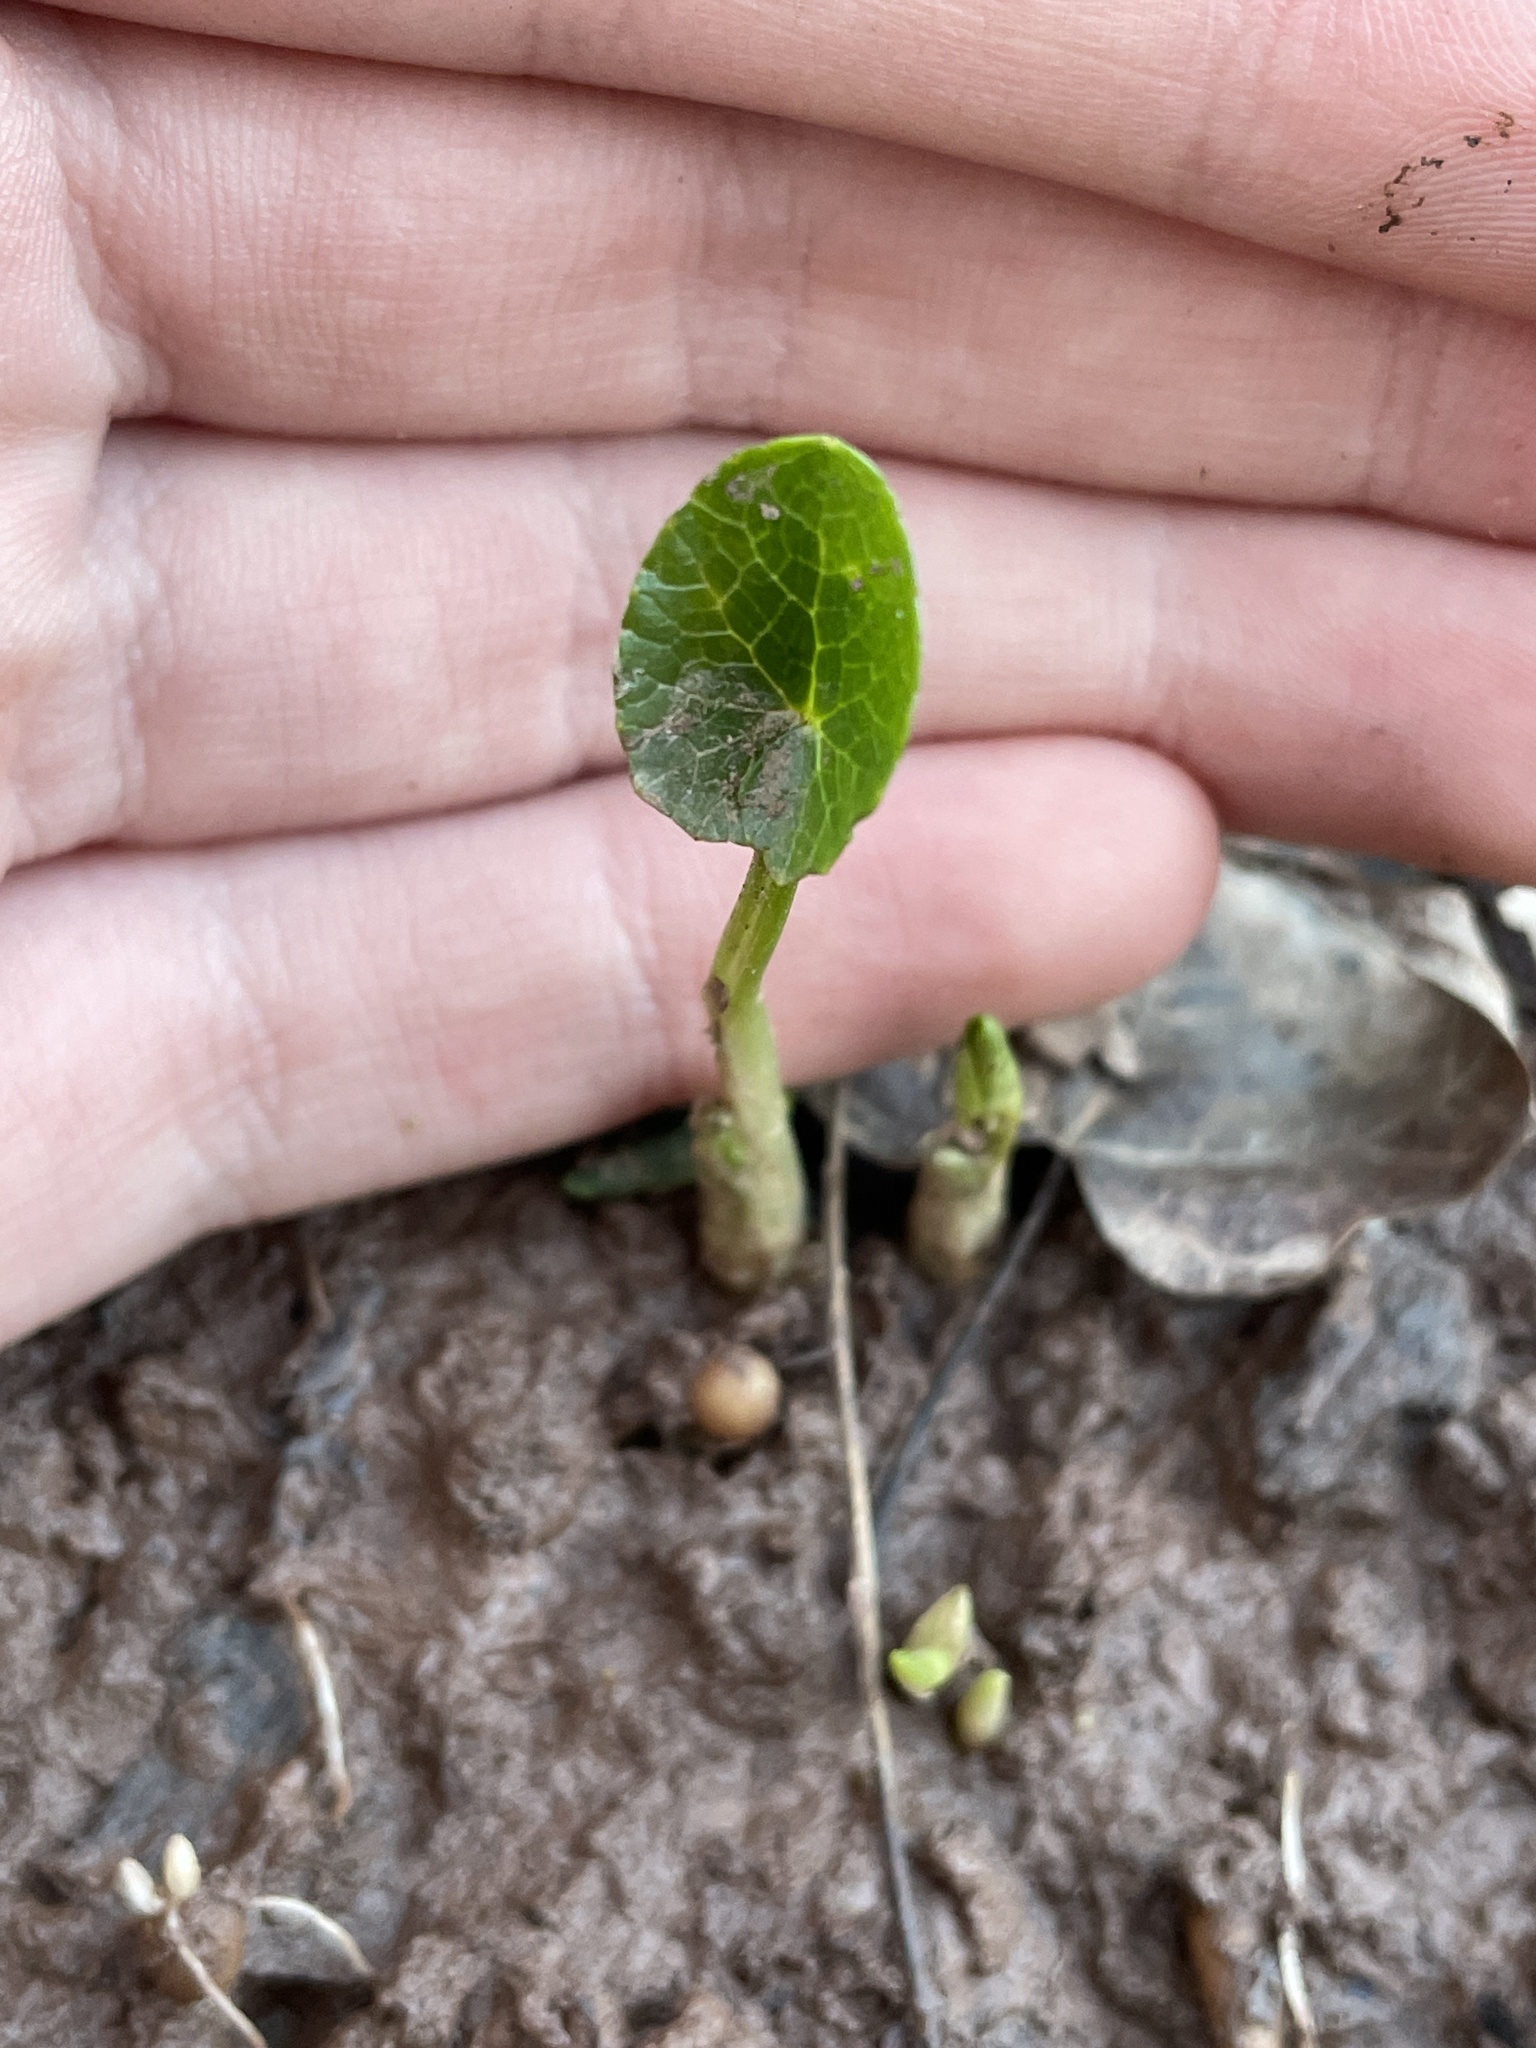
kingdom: Plantae
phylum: Tracheophyta
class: Magnoliopsida
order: Ranunculales
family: Ranunculaceae
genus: Ficaria
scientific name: Ficaria verna
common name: Lesser celandine
